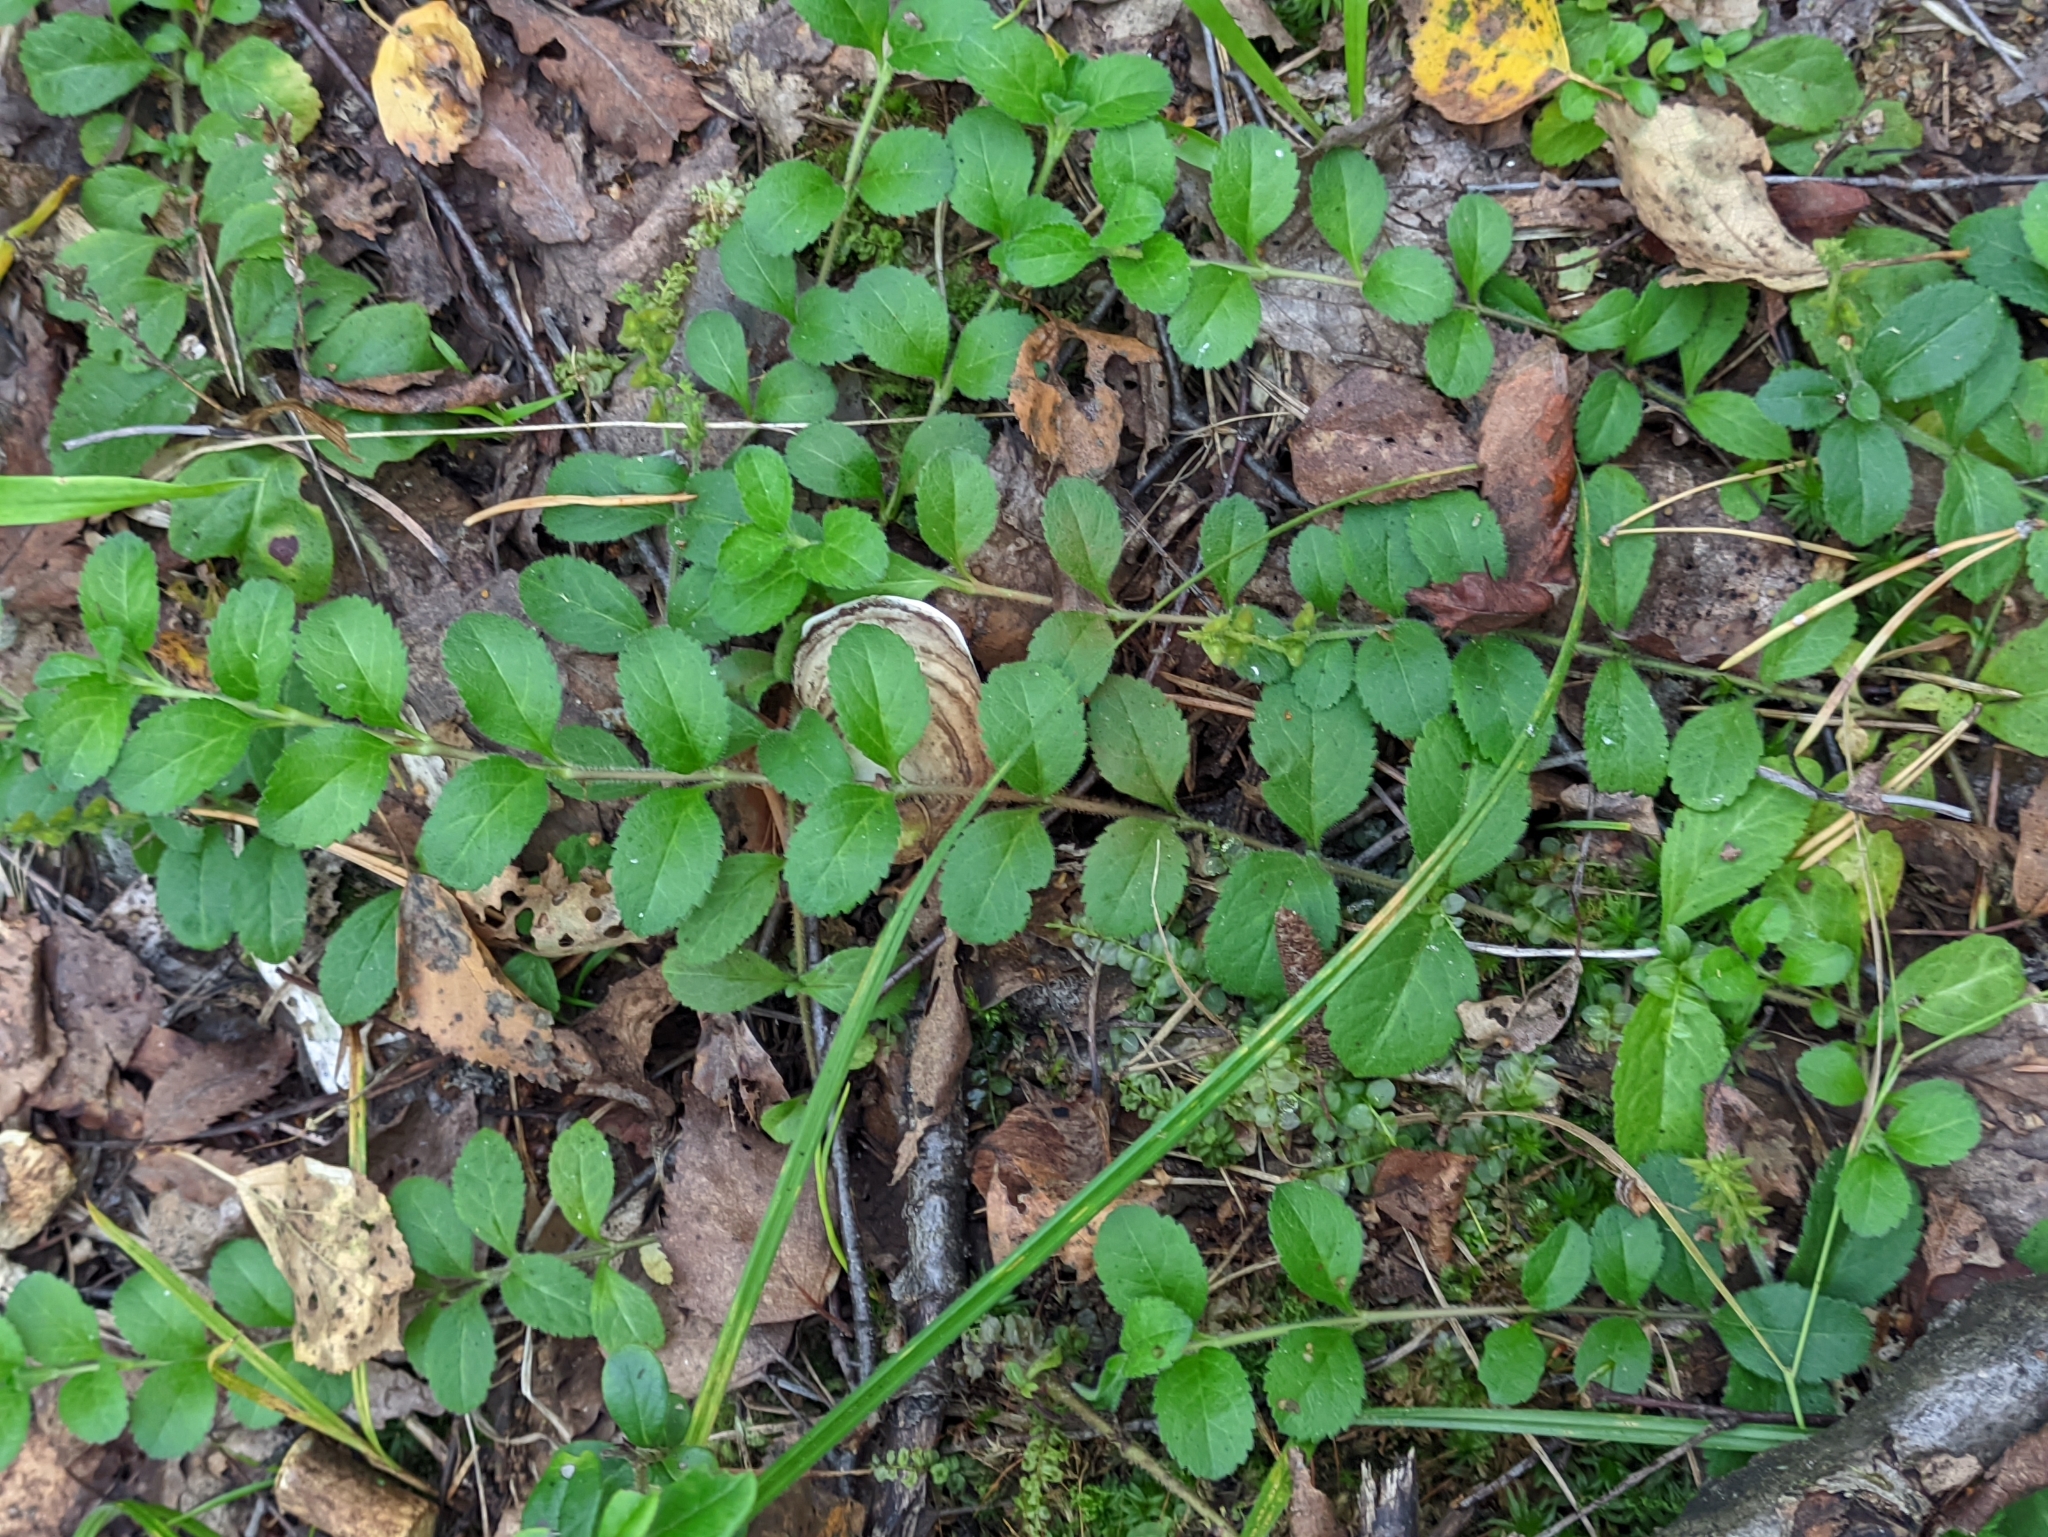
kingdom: Plantae
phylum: Tracheophyta
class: Magnoliopsida
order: Lamiales
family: Plantaginaceae
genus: Veronica
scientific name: Veronica officinalis
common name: Common speedwell
